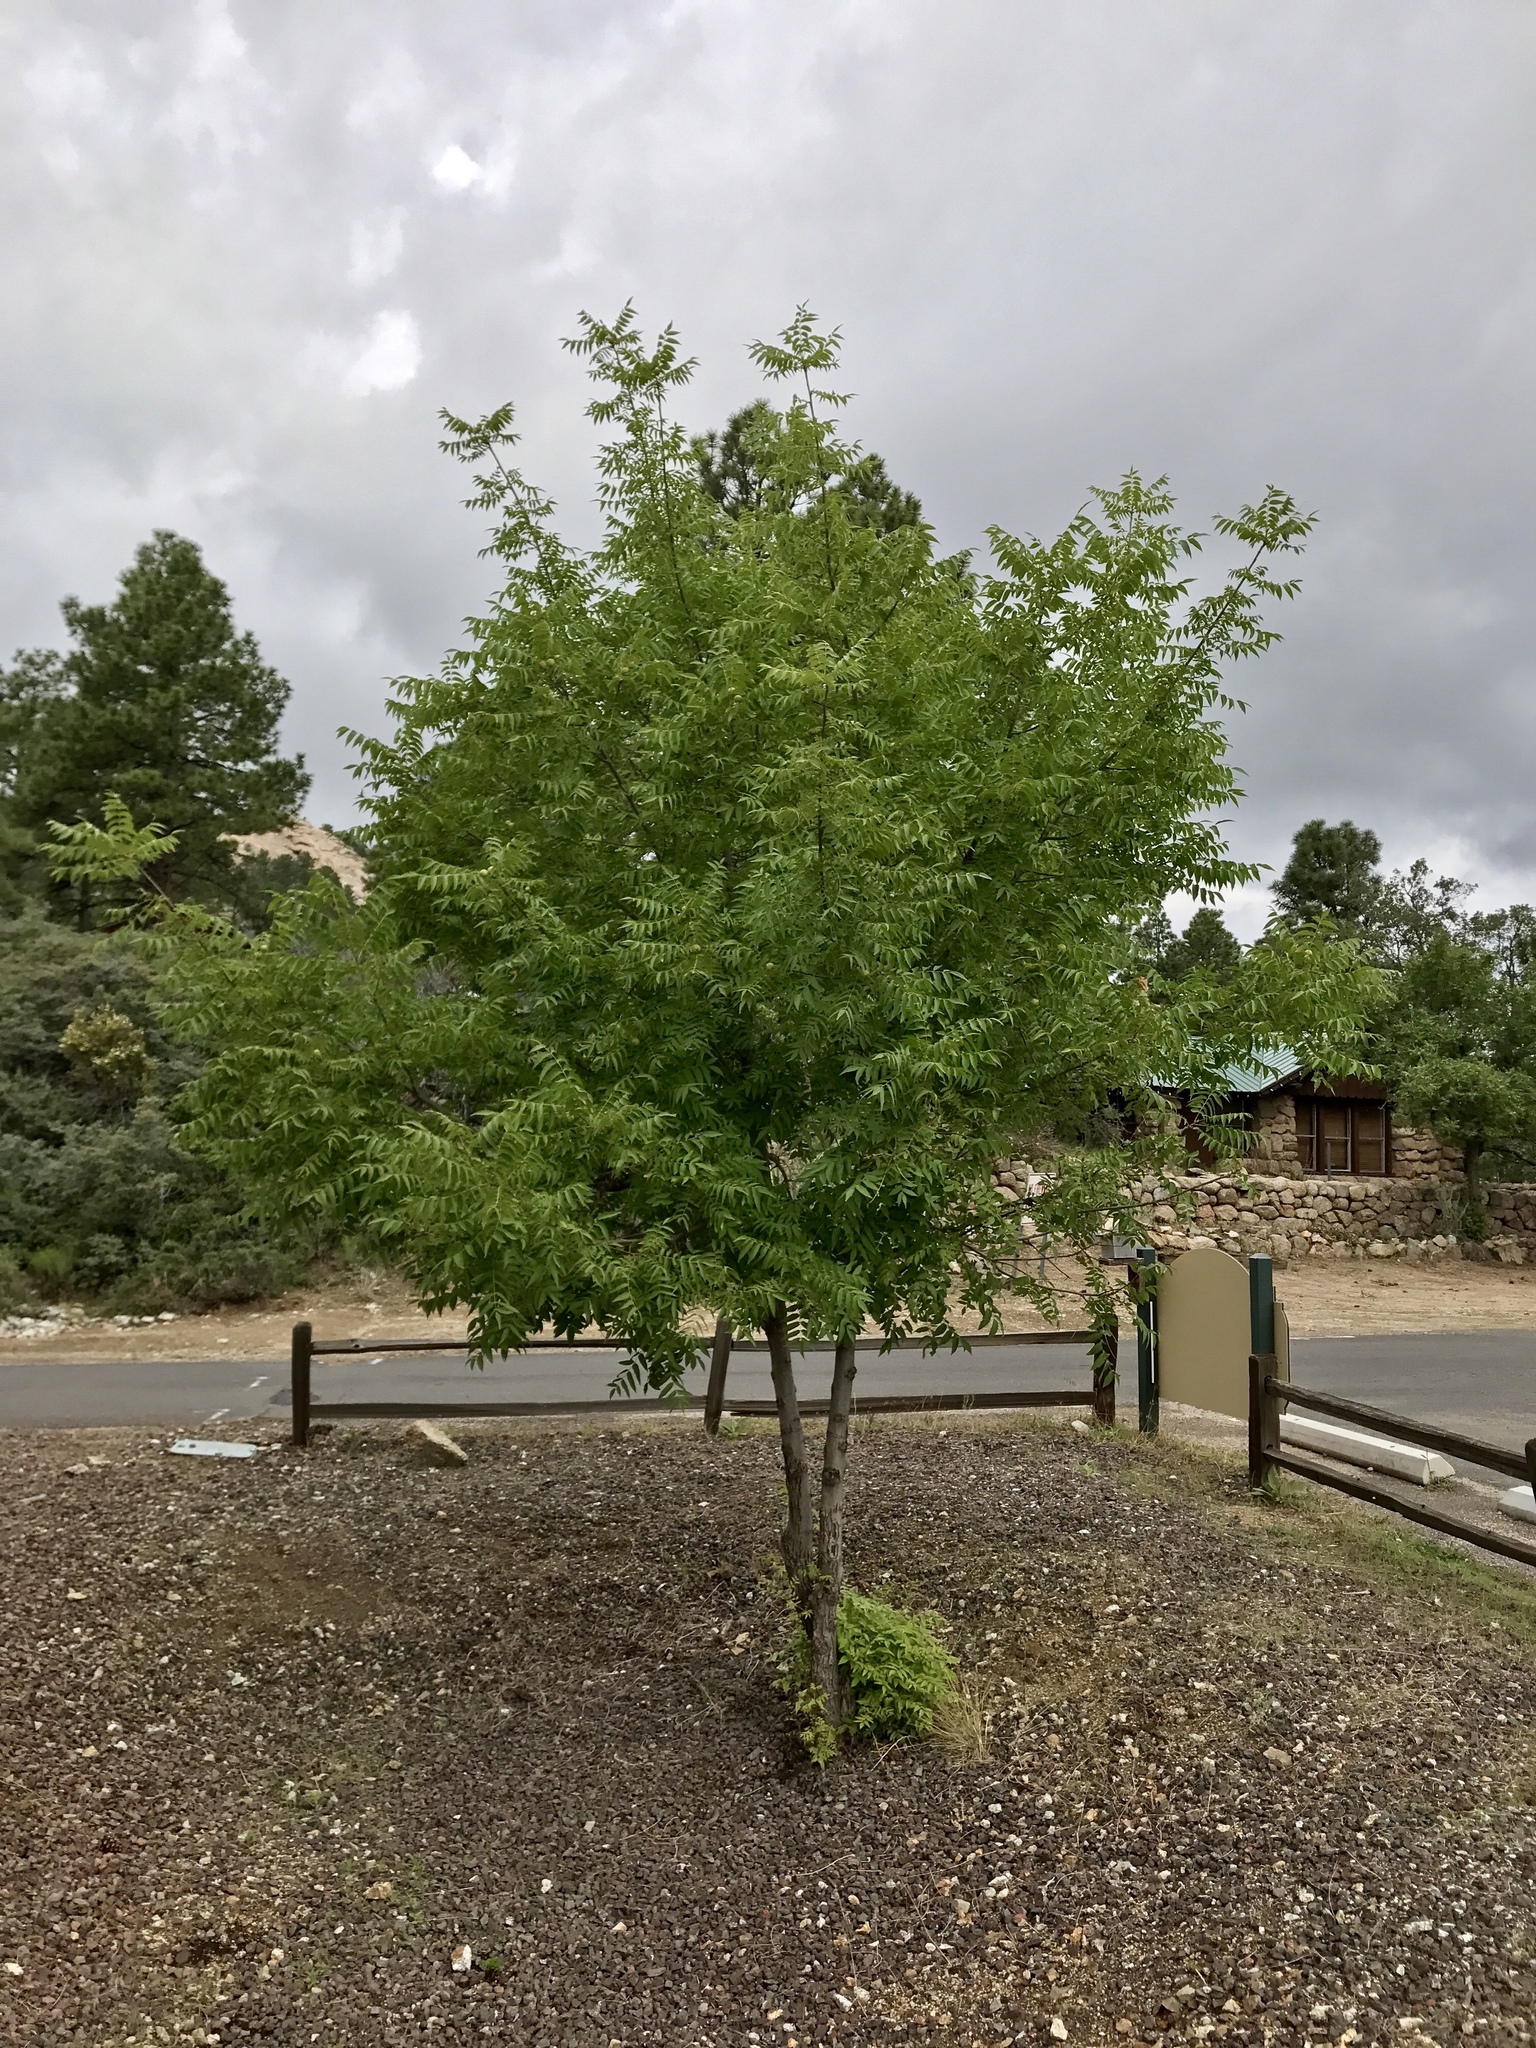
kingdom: Plantae
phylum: Tracheophyta
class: Magnoliopsida
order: Fagales
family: Juglandaceae
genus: Juglans
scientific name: Juglans major
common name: Arizona walnut
